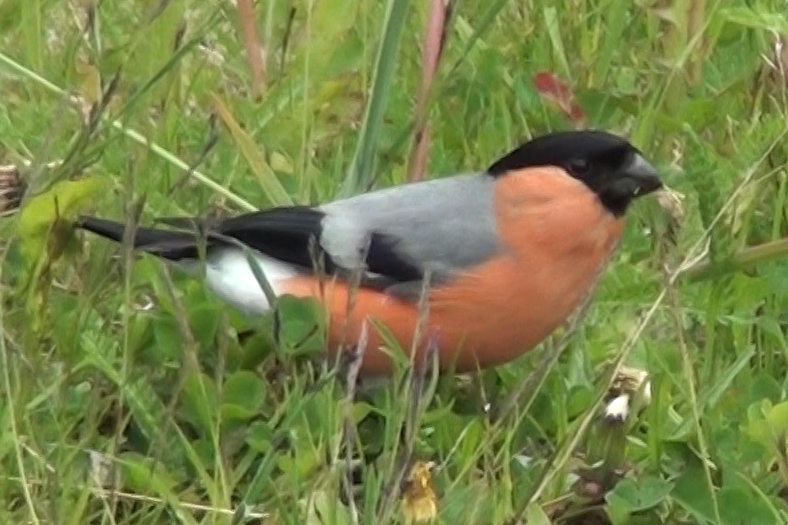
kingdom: Animalia
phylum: Chordata
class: Aves
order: Passeriformes
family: Fringillidae
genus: Pyrrhula
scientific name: Pyrrhula pyrrhula
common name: Eurasian bullfinch
